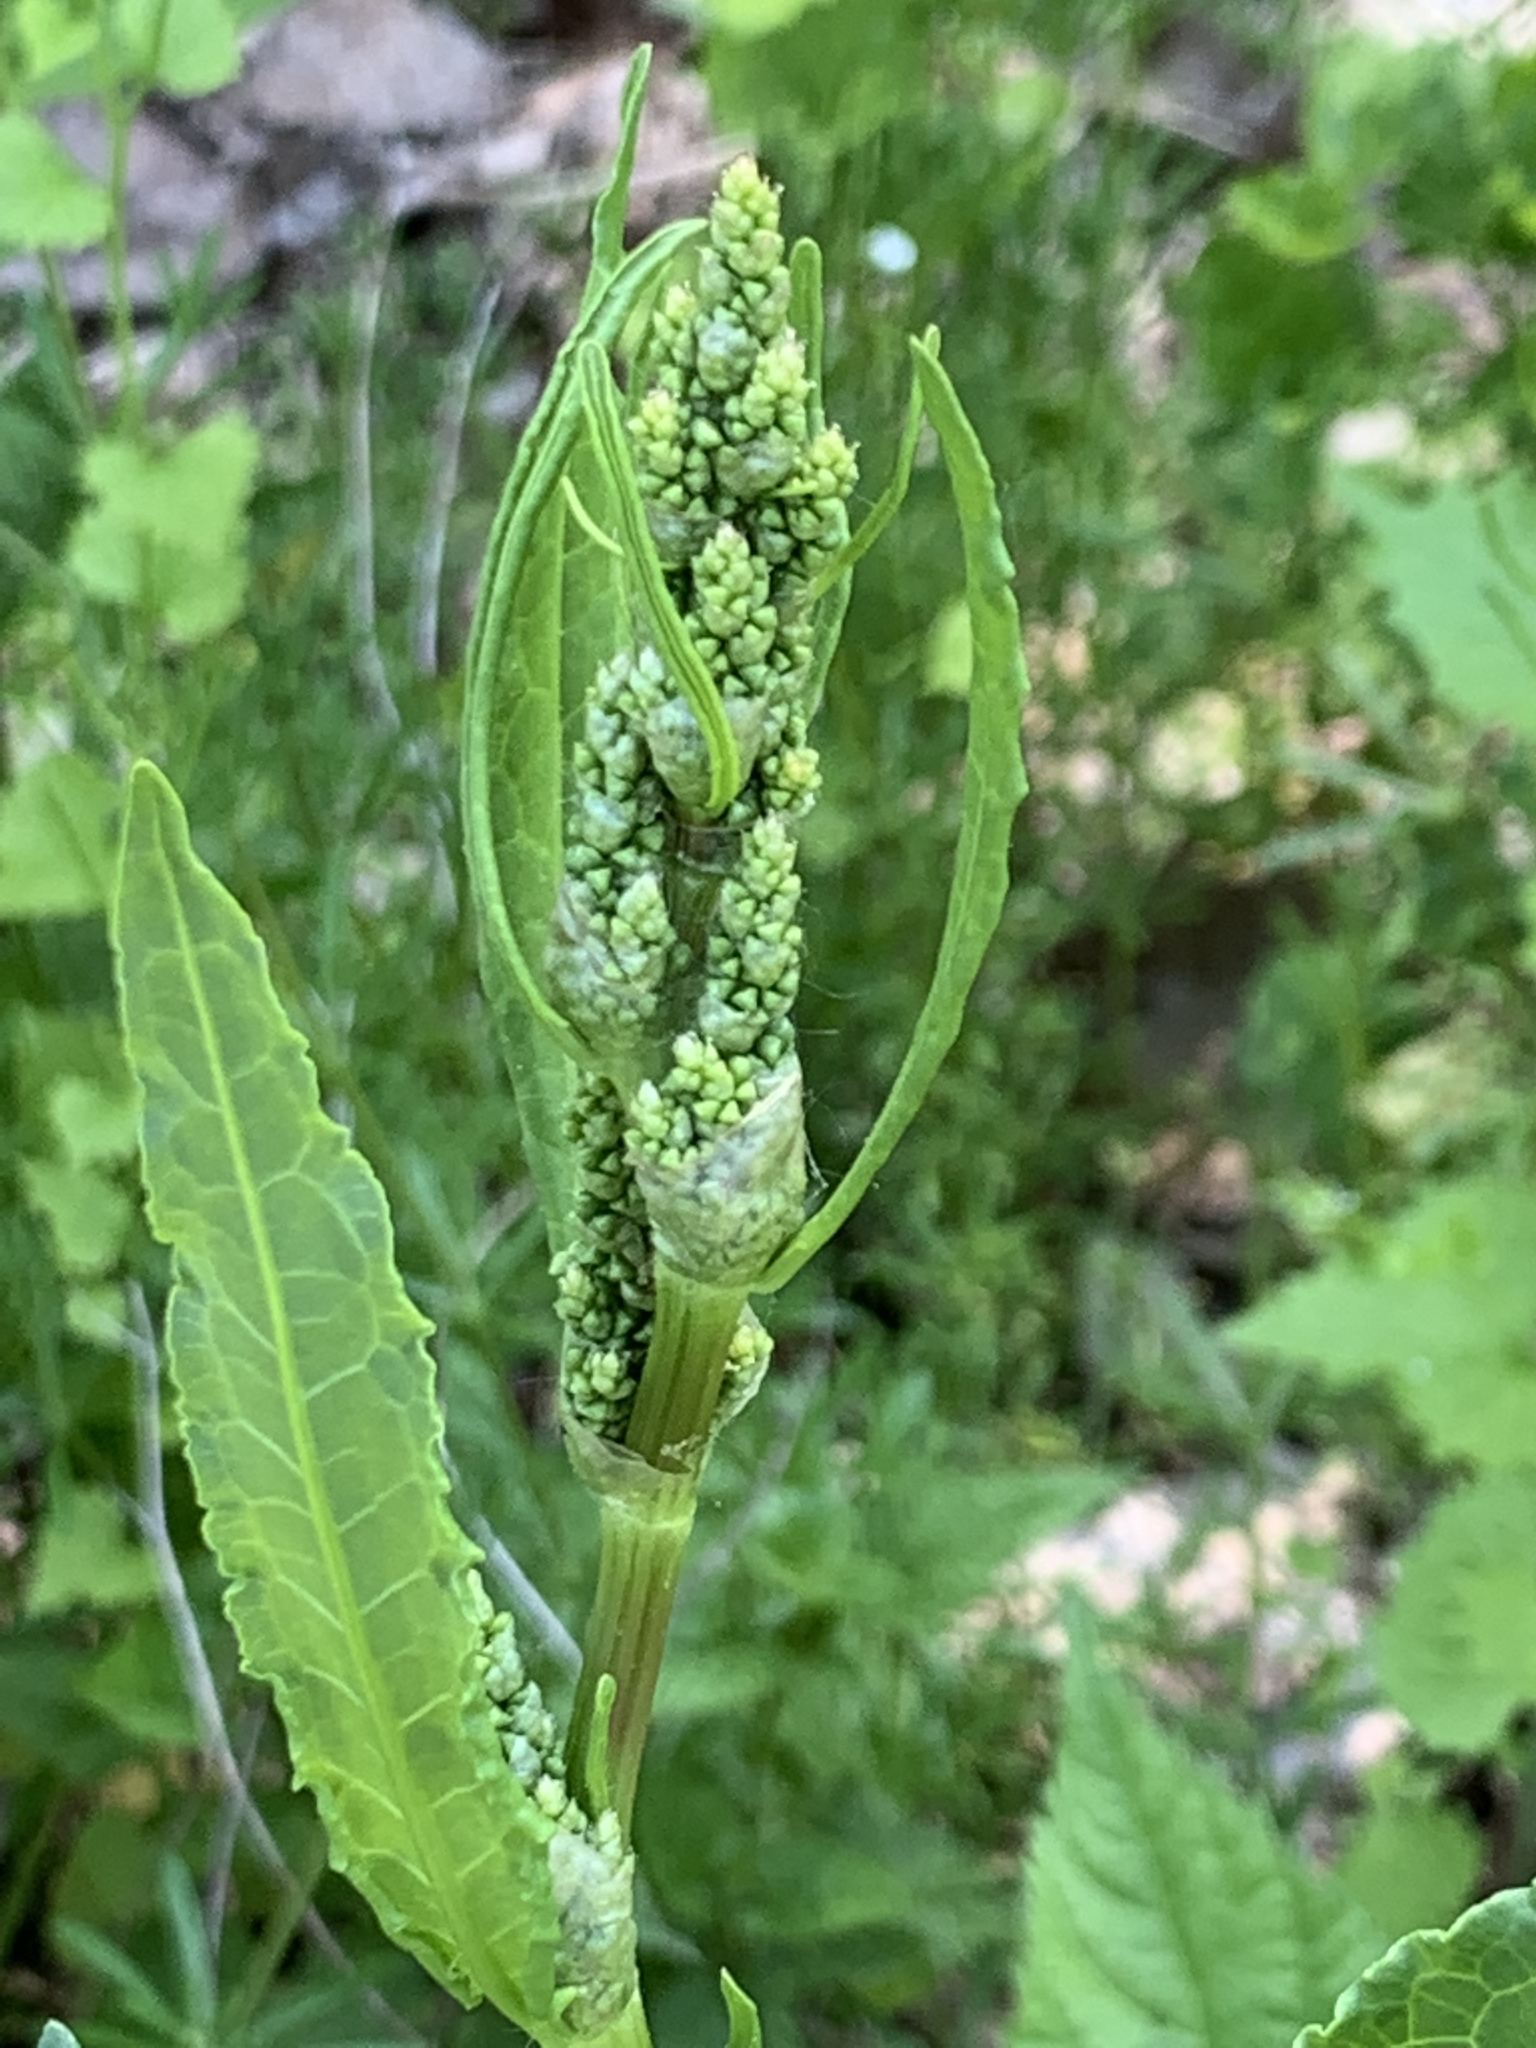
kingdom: Plantae
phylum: Tracheophyta
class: Magnoliopsida
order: Caryophyllales
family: Polygonaceae
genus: Rumex
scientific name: Rumex crispus
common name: Curled dock
